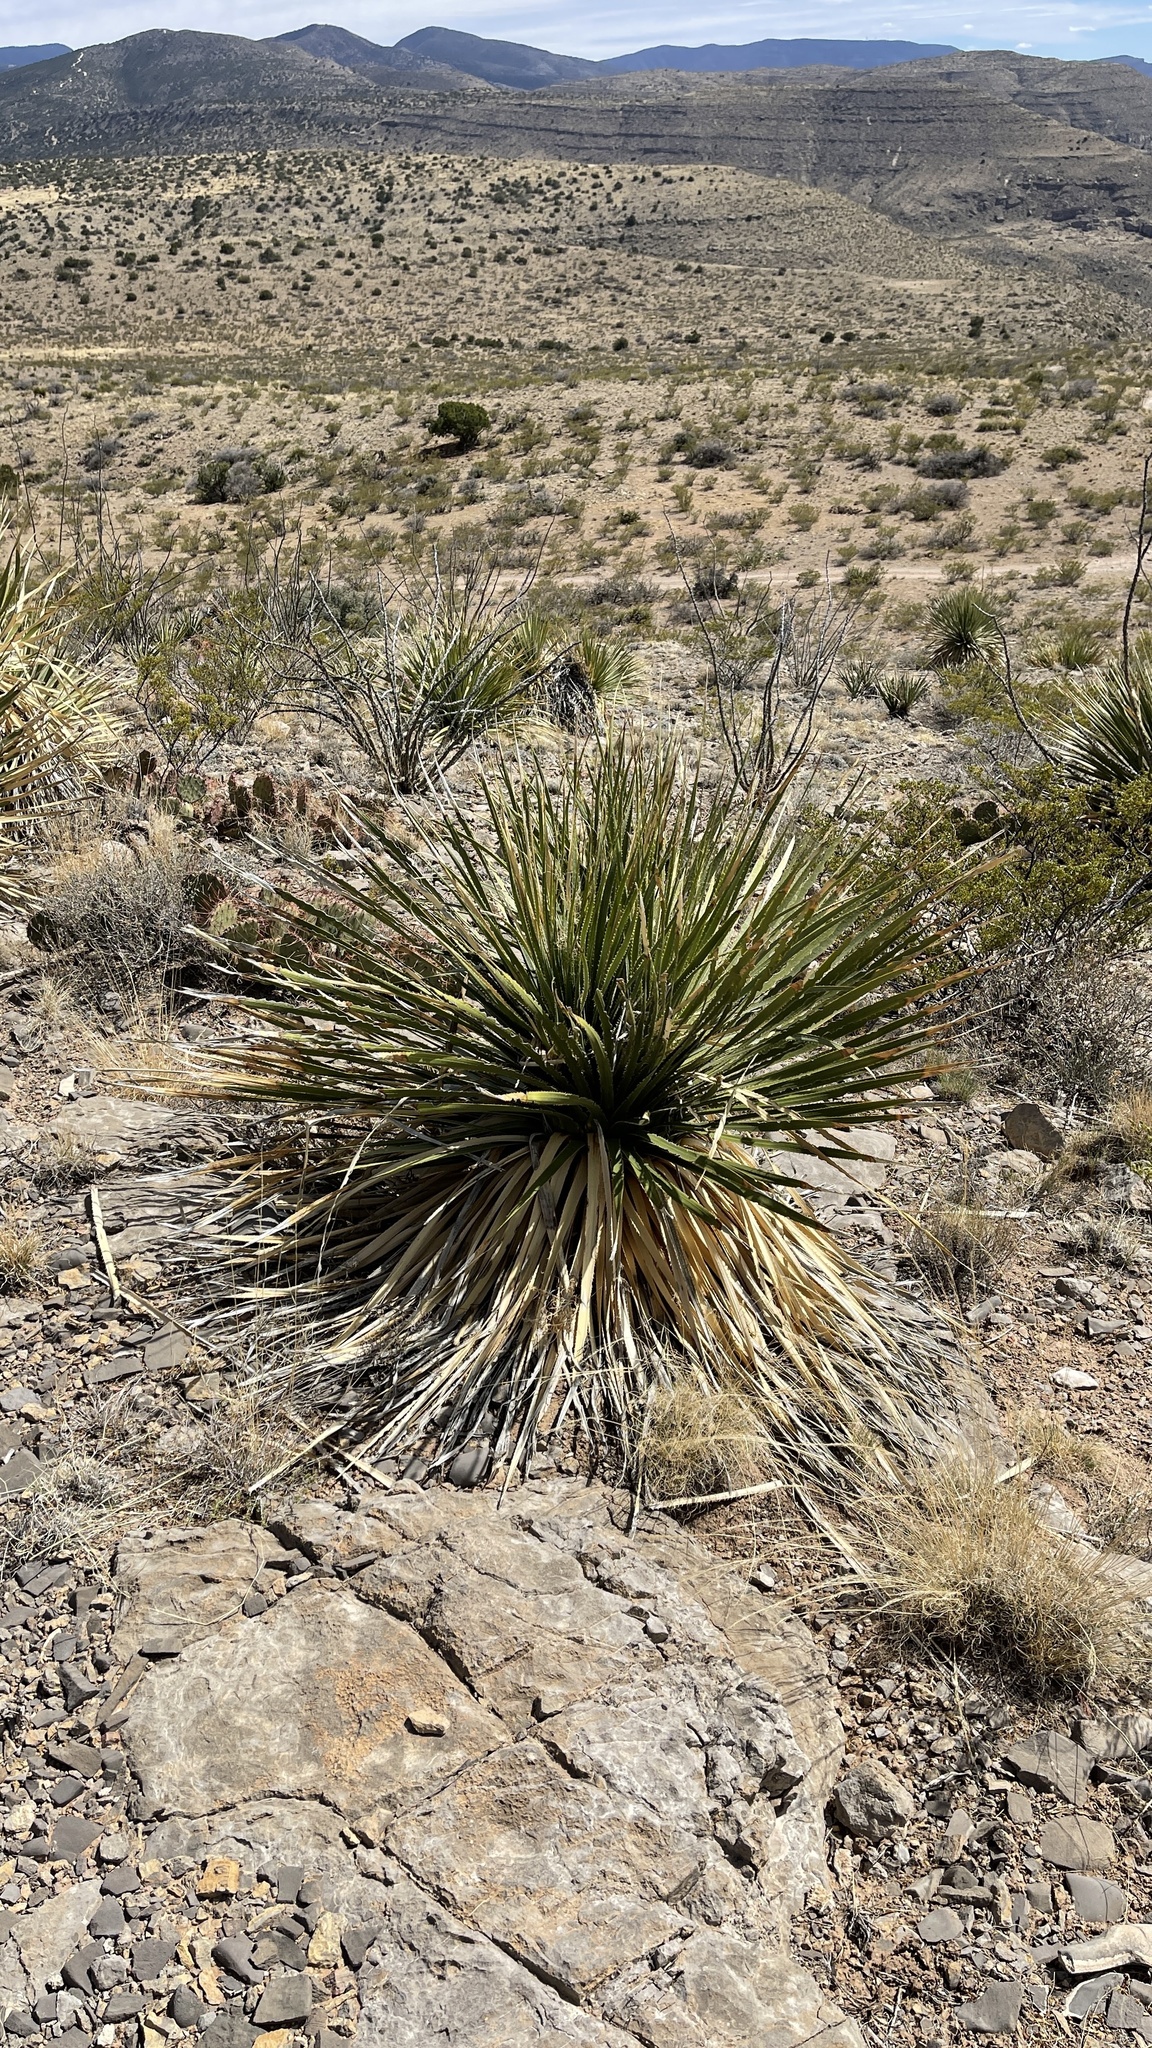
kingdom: Plantae
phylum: Tracheophyta
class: Liliopsida
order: Asparagales
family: Asparagaceae
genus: Dasylirion
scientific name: Dasylirion wheeleri
